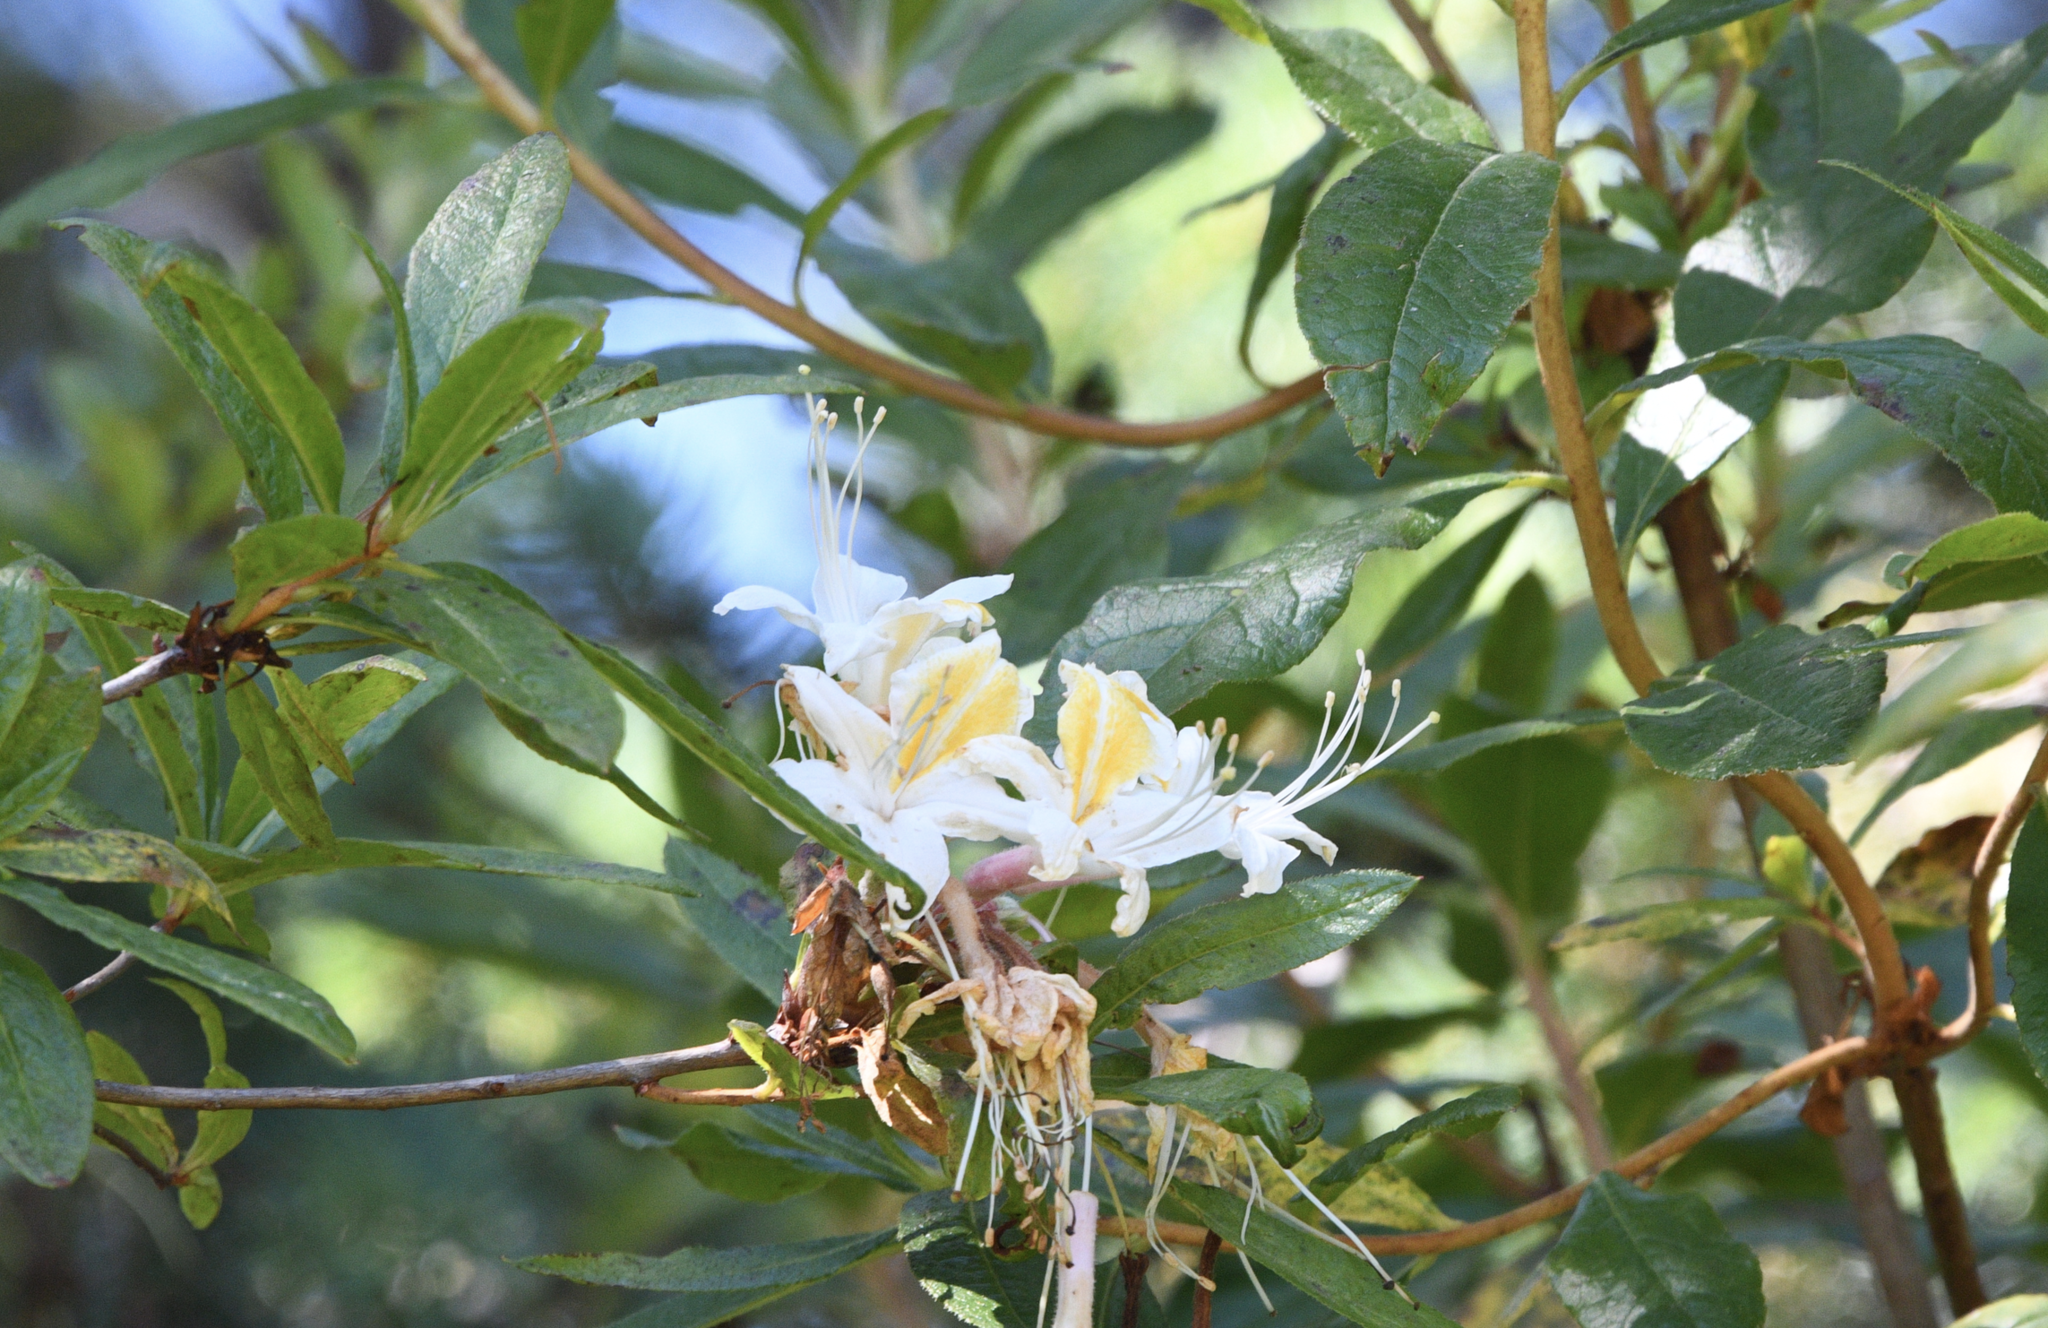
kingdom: Plantae
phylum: Tracheophyta
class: Magnoliopsida
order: Ericales
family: Ericaceae
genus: Rhododendron
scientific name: Rhododendron occidentale
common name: Western azalea
